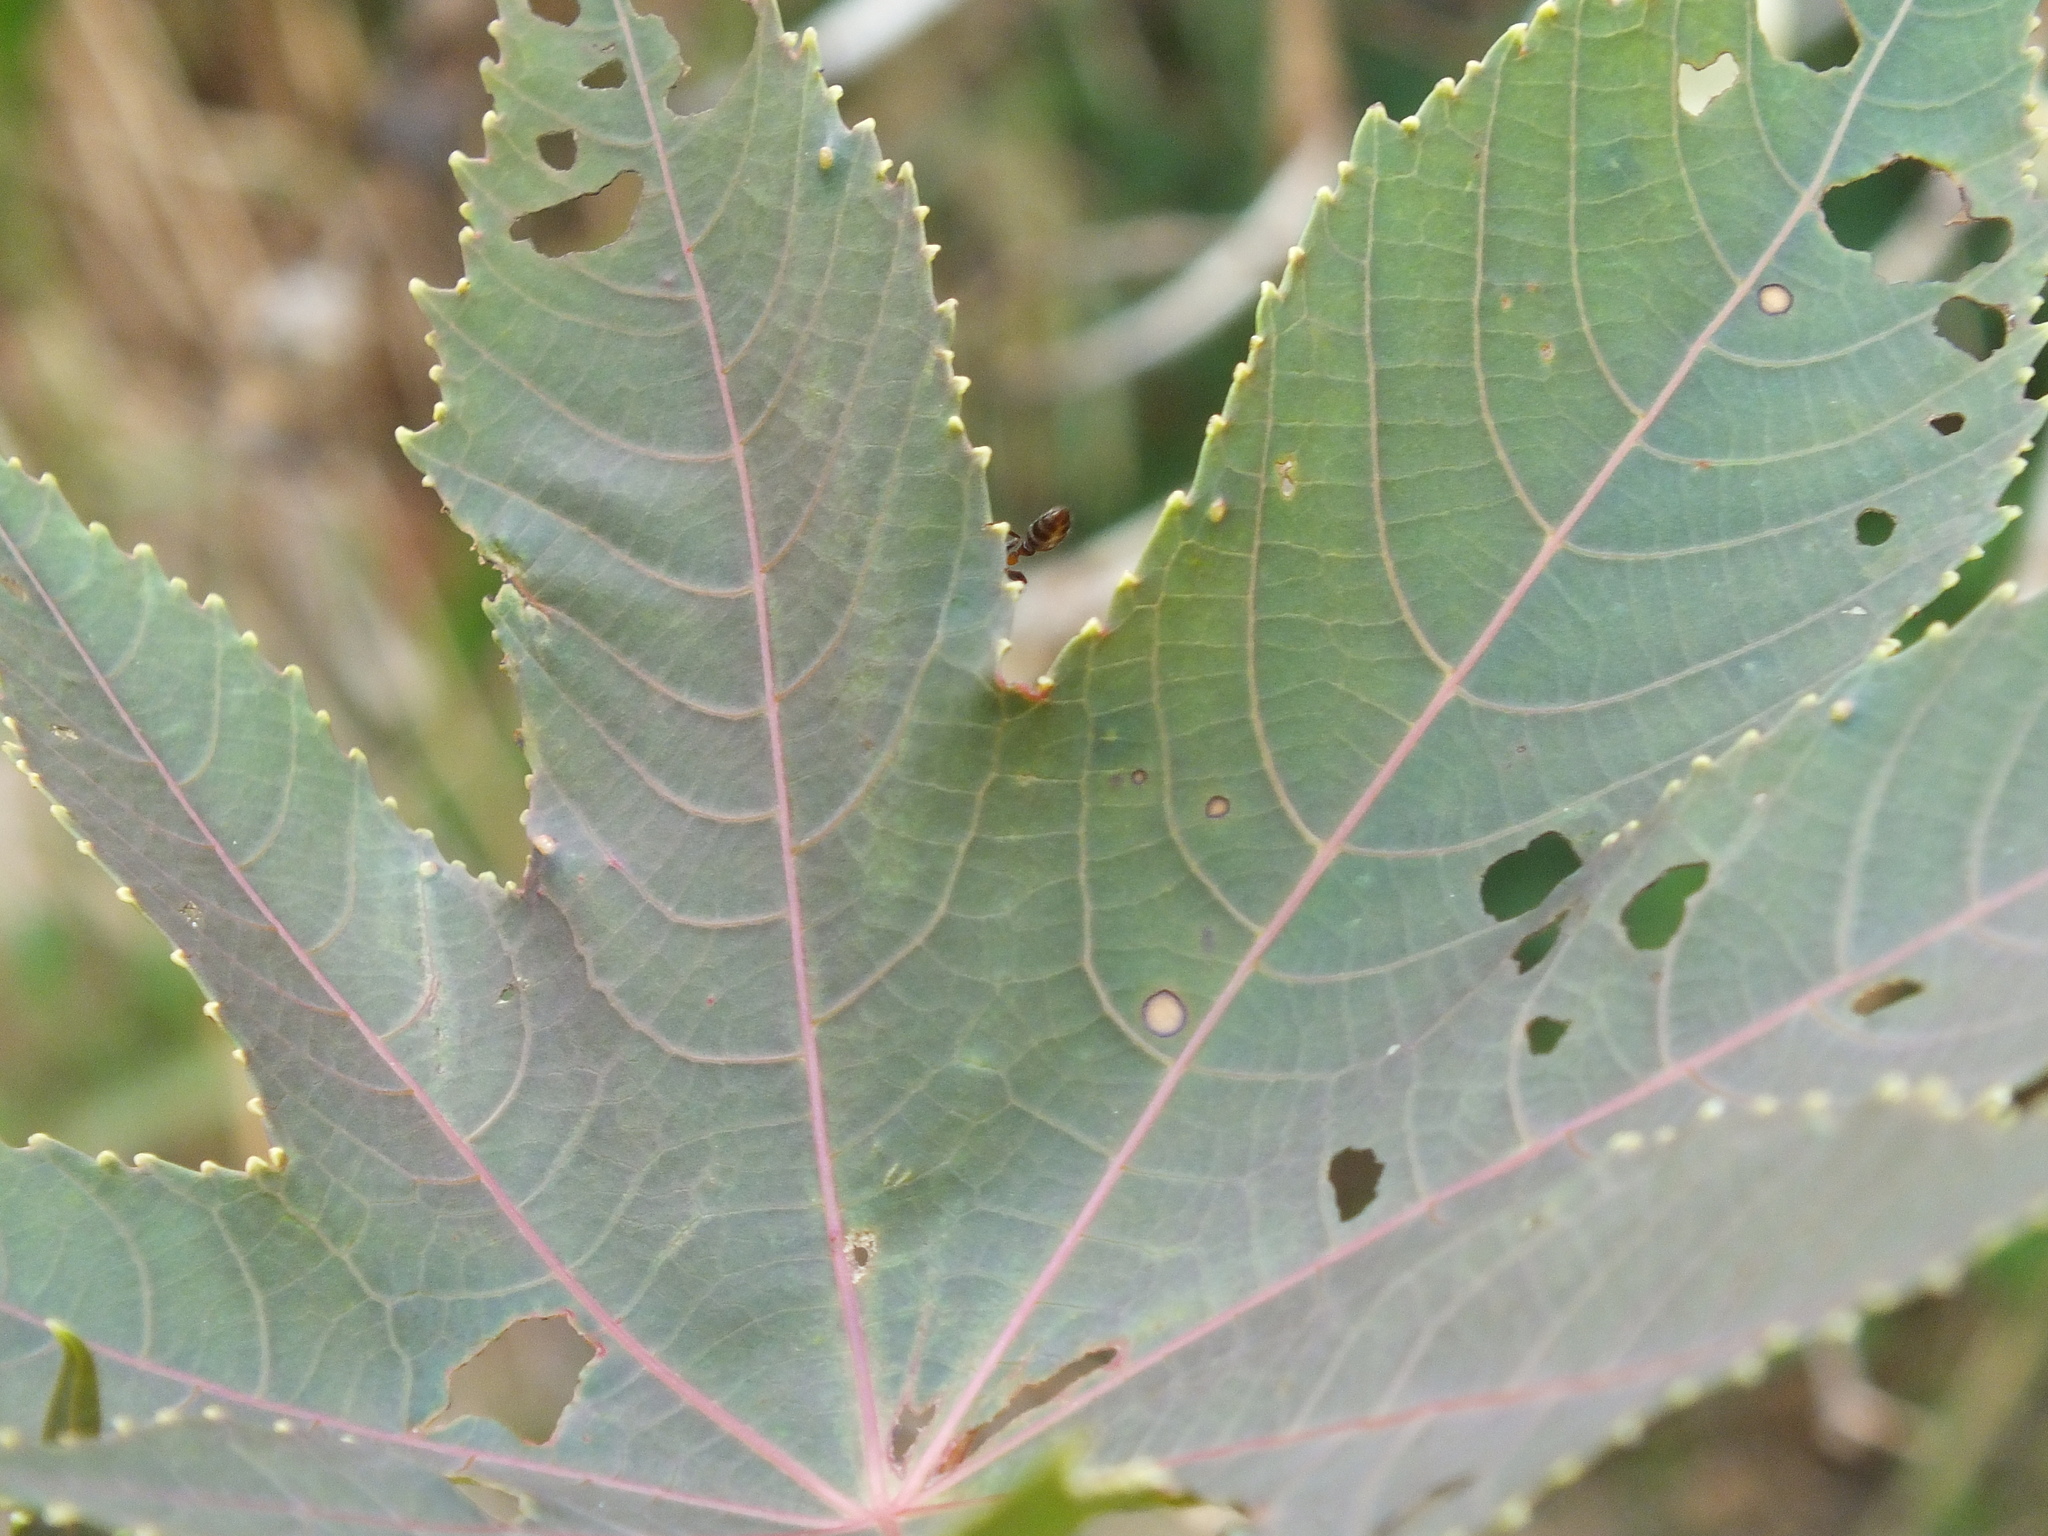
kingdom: Animalia
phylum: Arthropoda
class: Insecta
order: Hymenoptera
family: Formicidae
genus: Pseudomyrmex
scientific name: Pseudomyrmex gracilis
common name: Graceful twig ant
